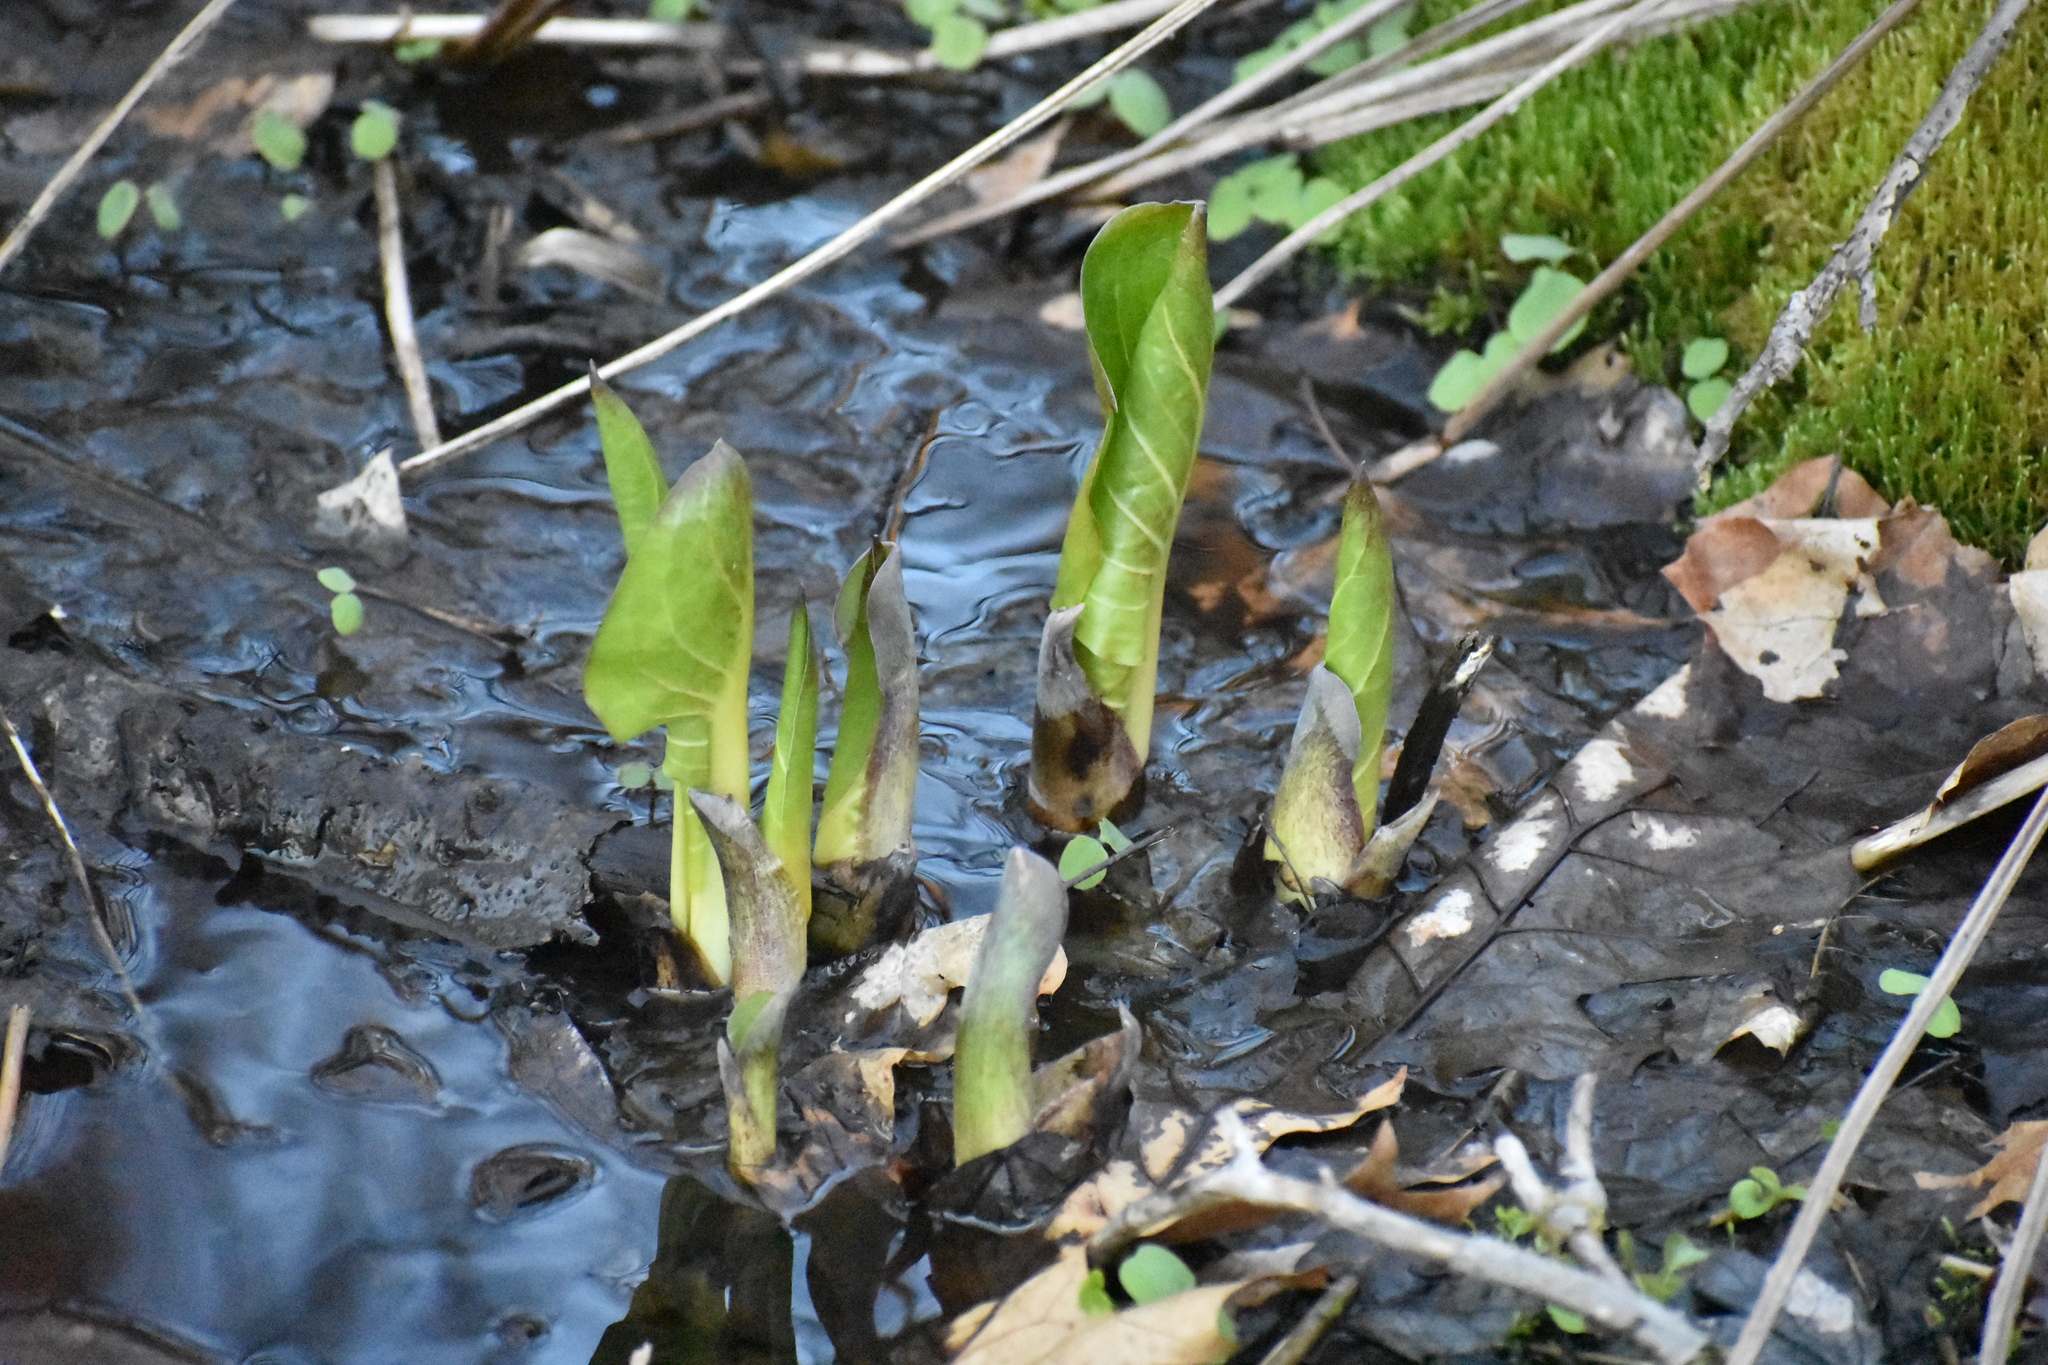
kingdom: Plantae
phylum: Tracheophyta
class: Liliopsida
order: Alismatales
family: Araceae
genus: Symplocarpus
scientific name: Symplocarpus foetidus
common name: Eastern skunk cabbage
